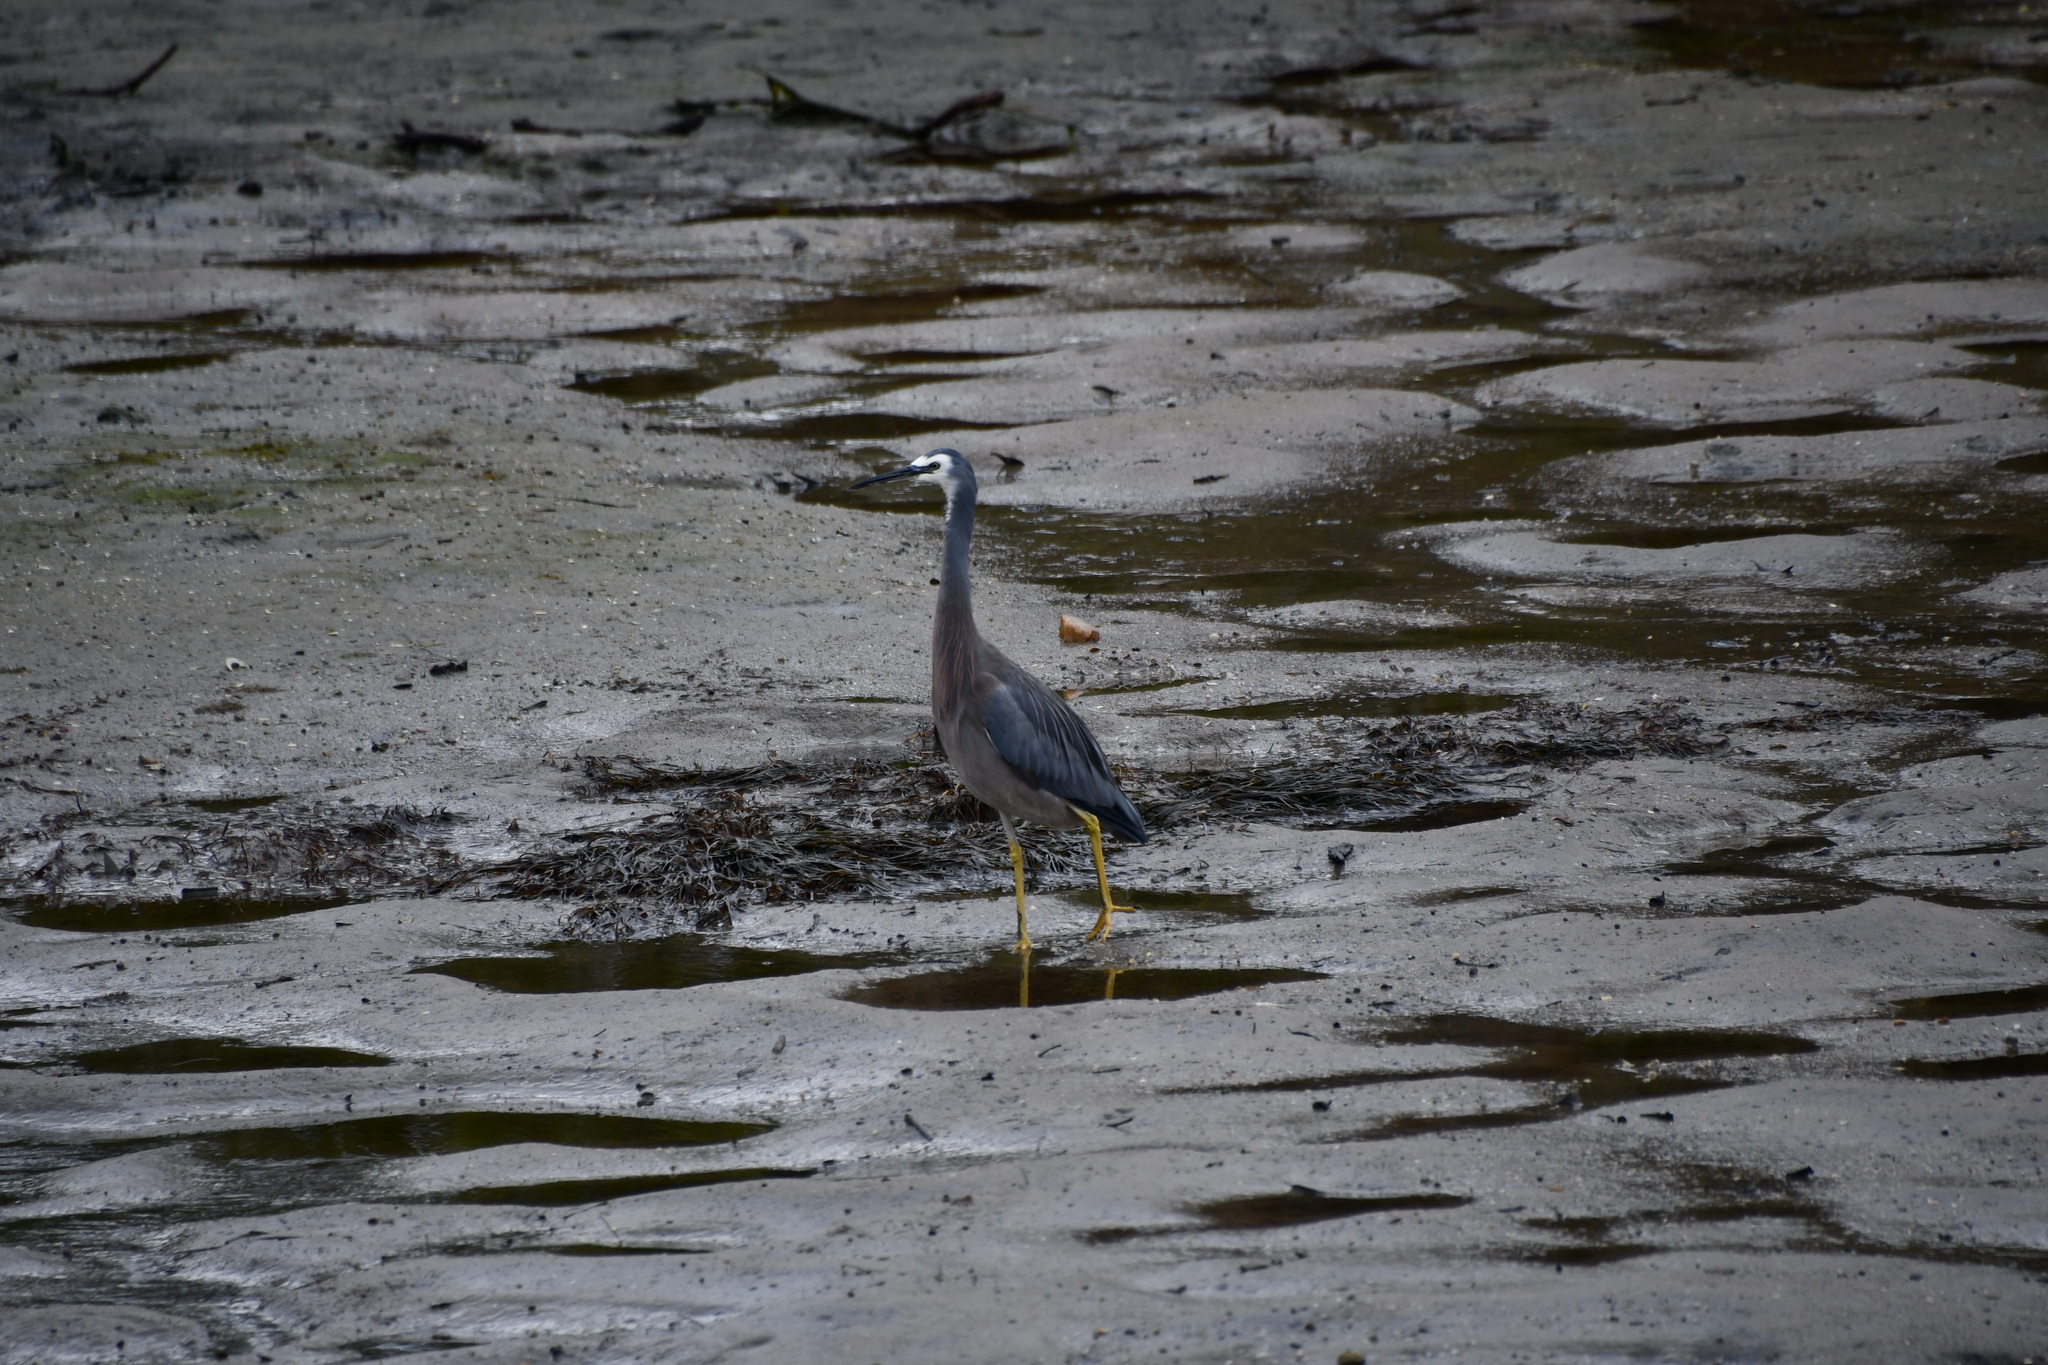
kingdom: Animalia
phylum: Chordata
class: Aves
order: Pelecaniformes
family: Ardeidae
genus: Egretta
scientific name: Egretta novaehollandiae
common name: White-faced heron
